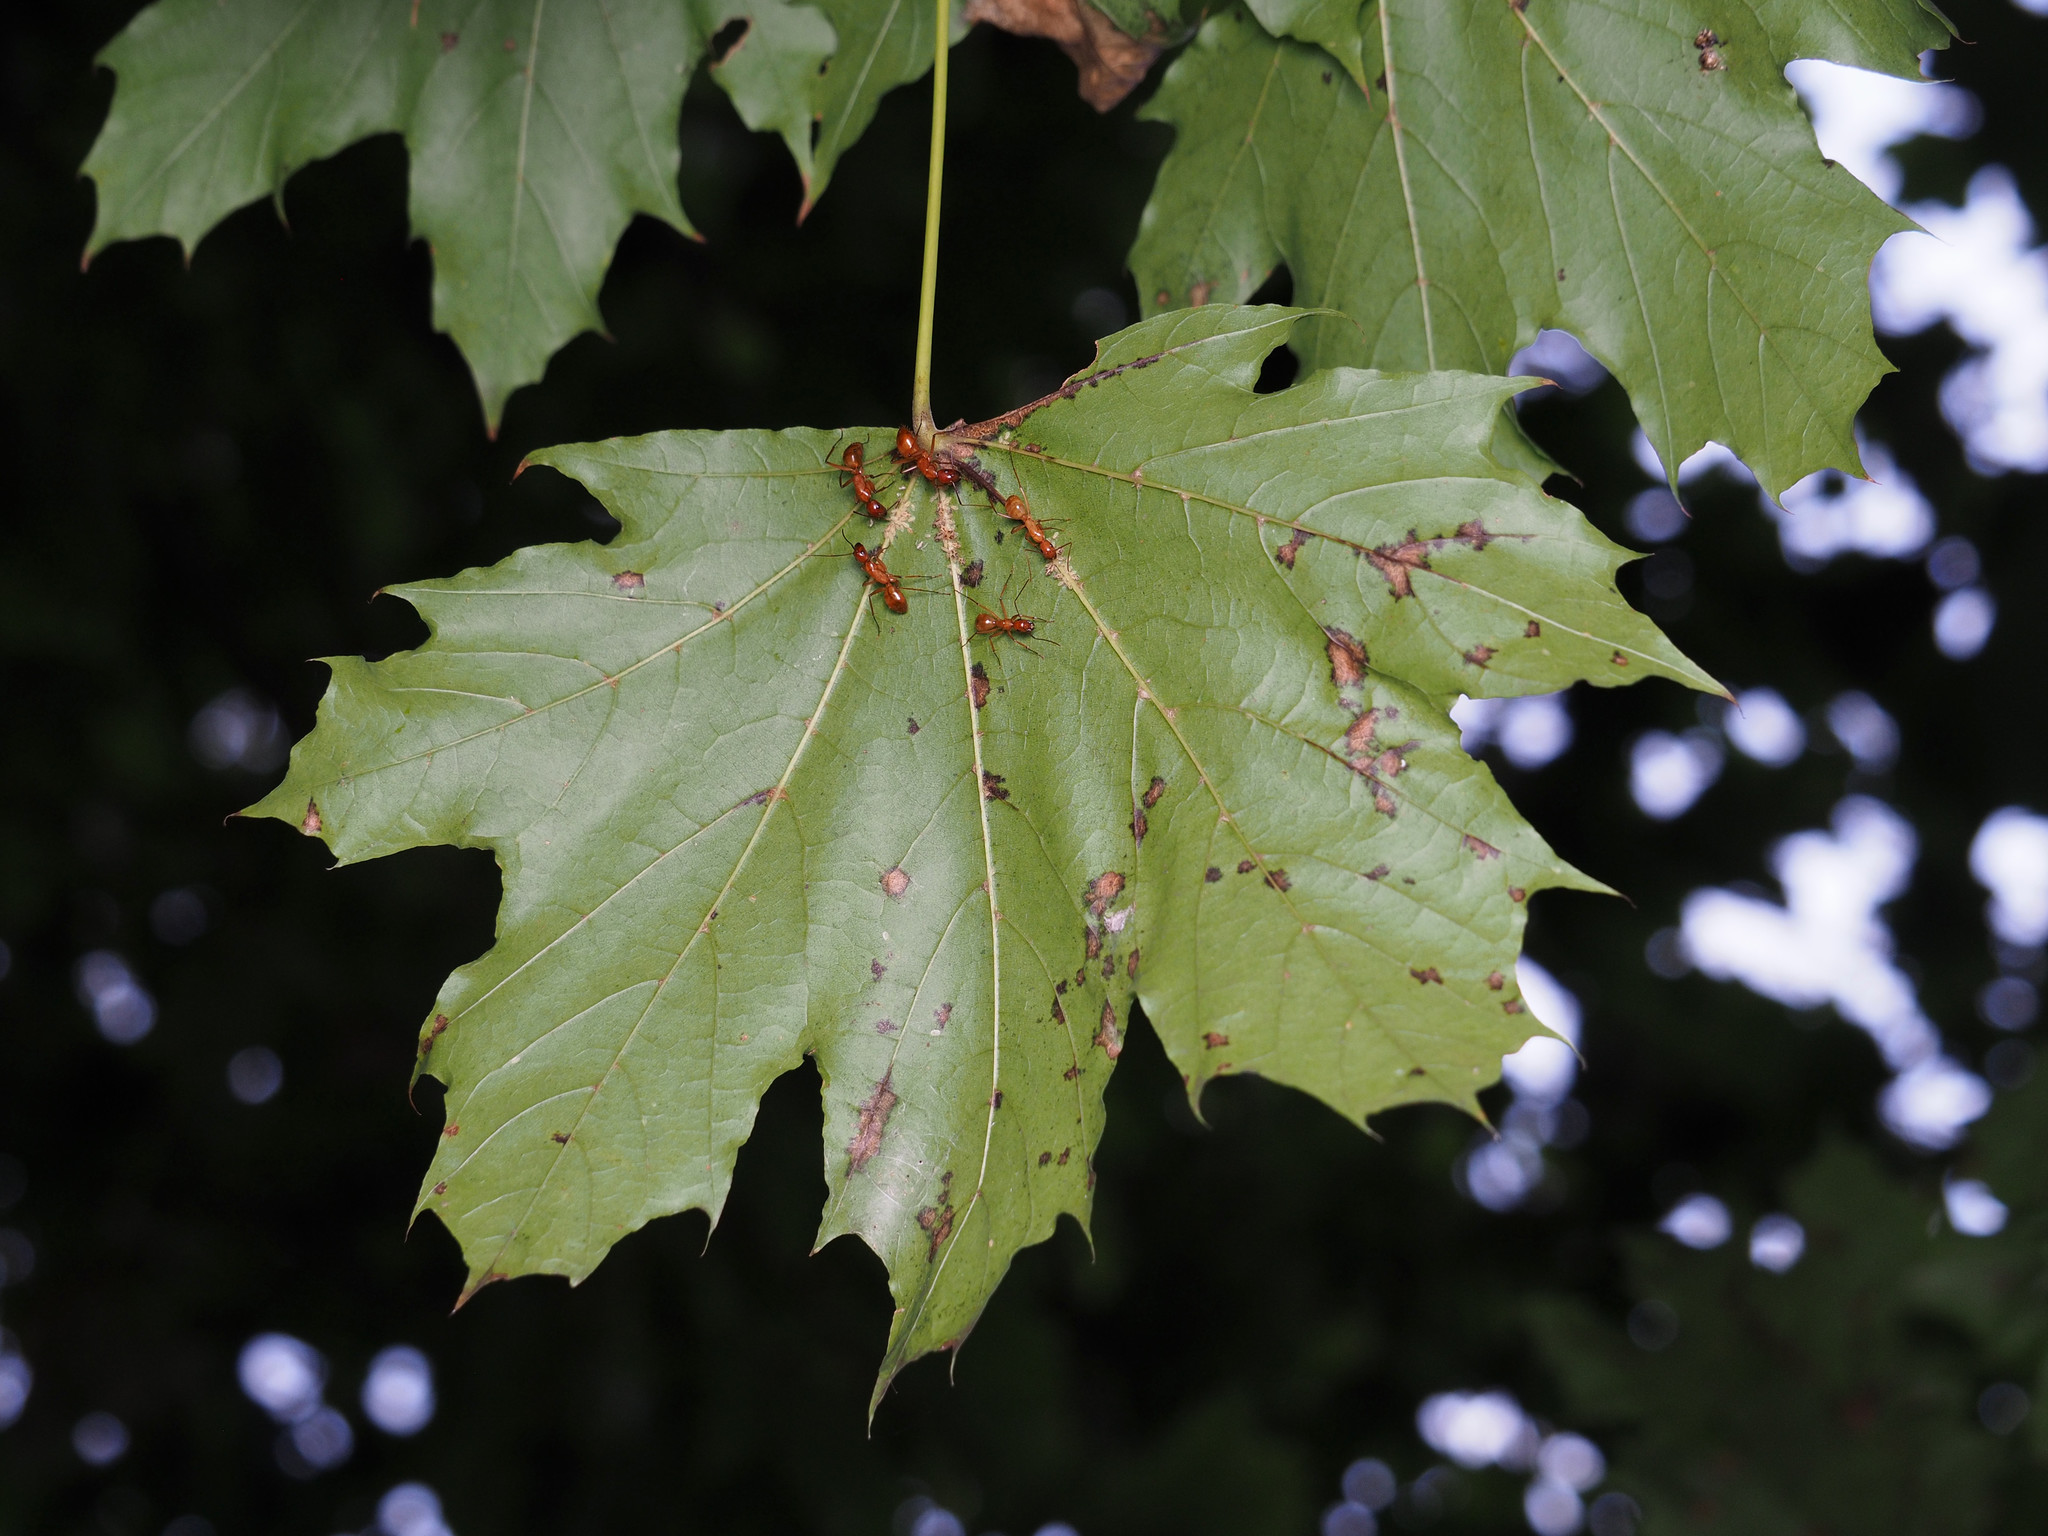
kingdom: Animalia
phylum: Arthropoda
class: Insecta
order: Hymenoptera
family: Formicidae
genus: Camponotus
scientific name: Camponotus castaneus
